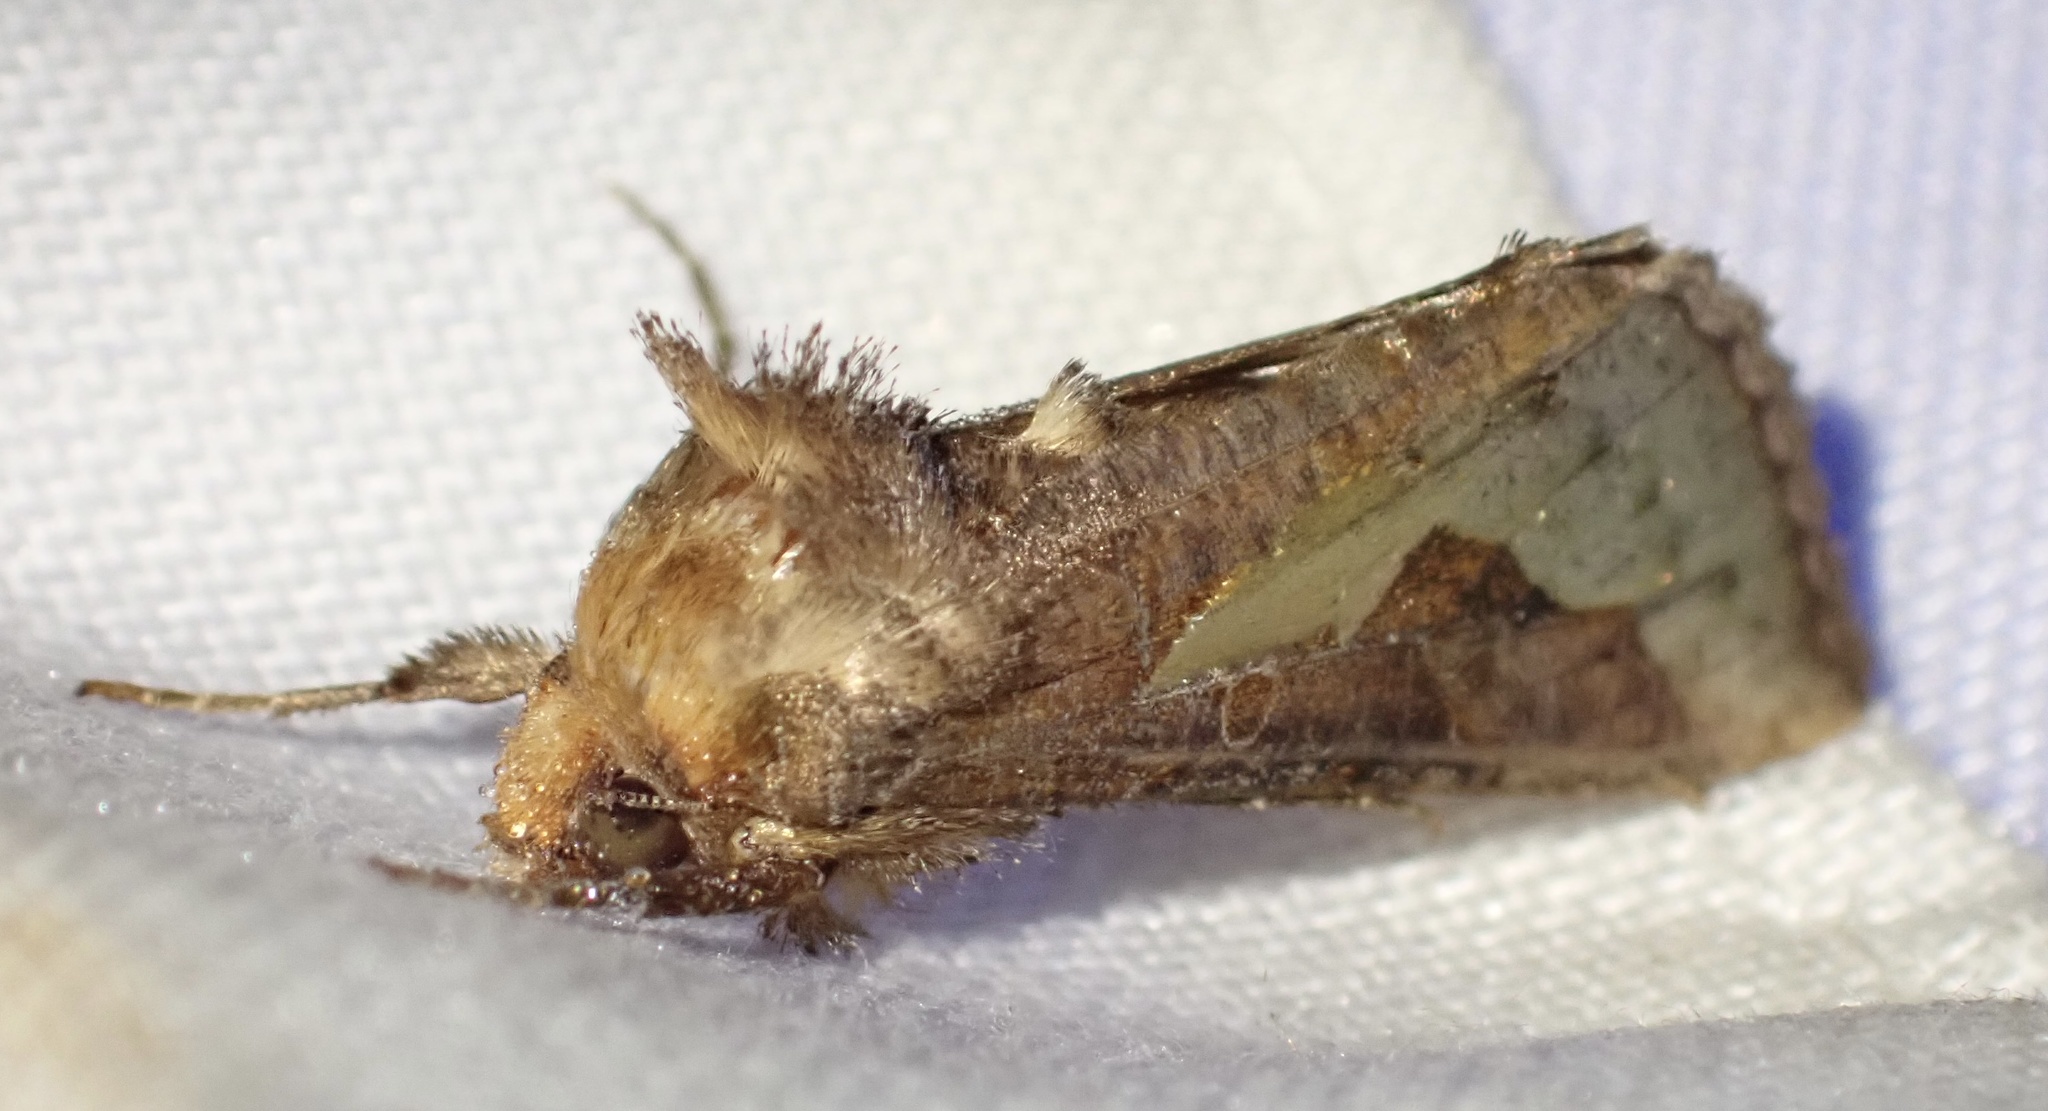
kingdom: Animalia
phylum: Arthropoda
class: Insecta
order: Lepidoptera
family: Noctuidae
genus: Thysanoplusia
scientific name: Thysanoplusia orichalcea
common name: Slender burnished brass, golden plusia
